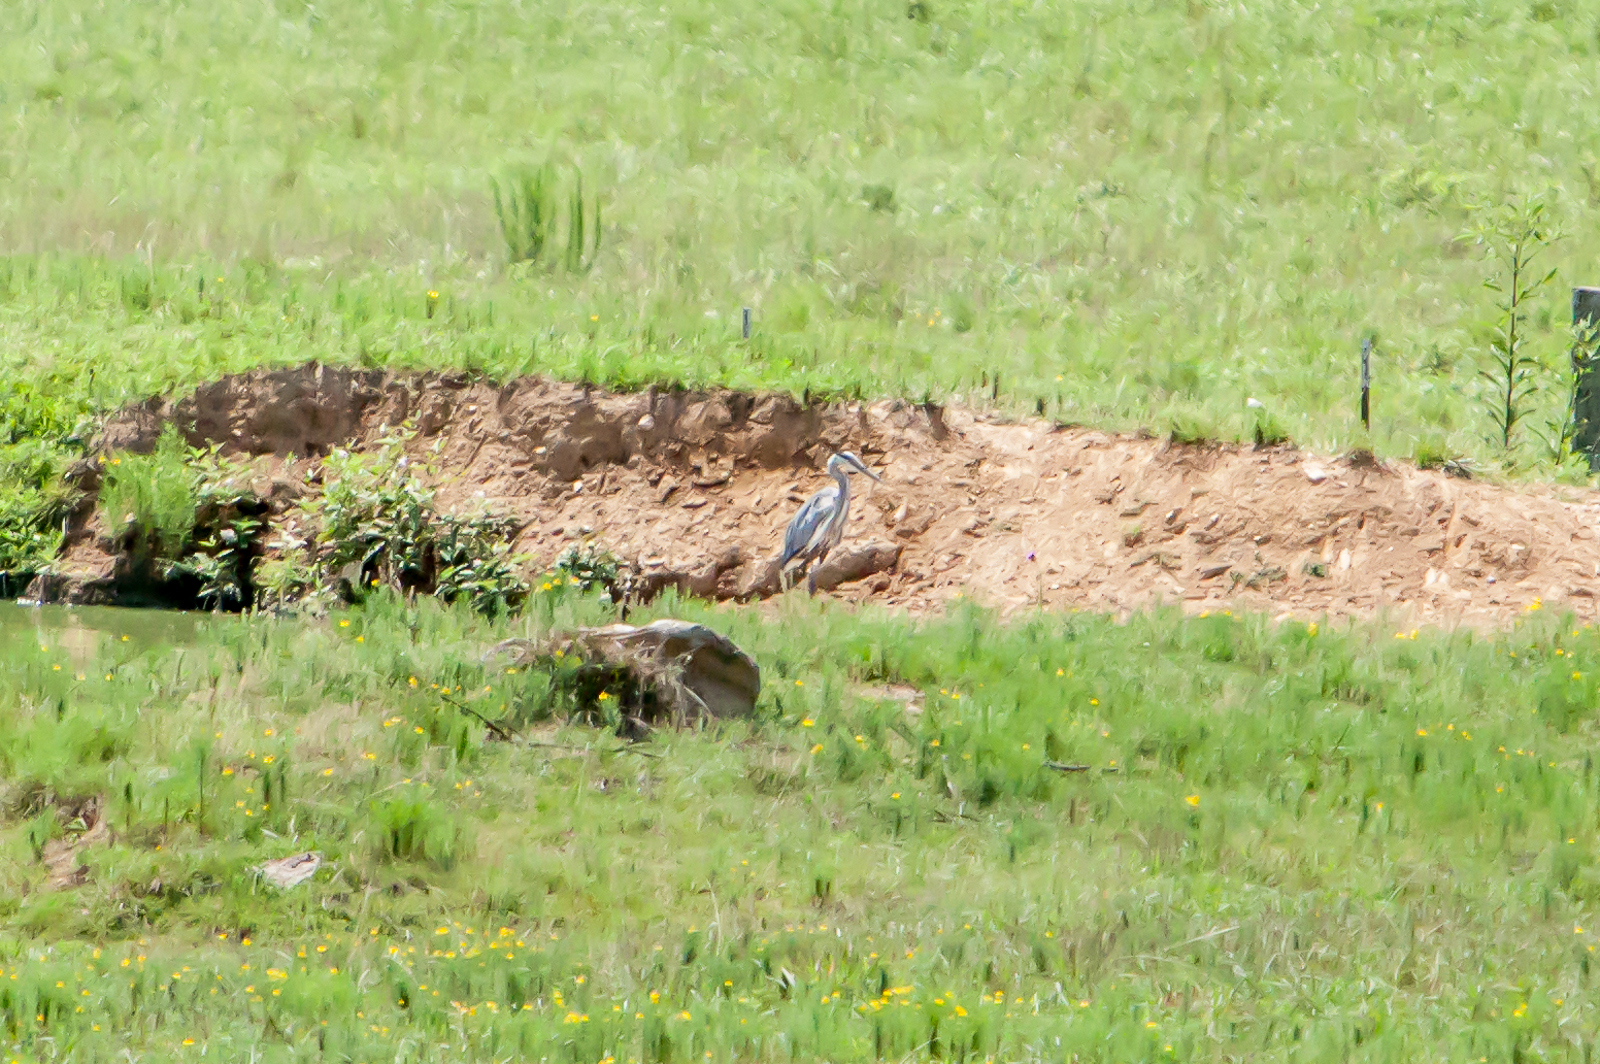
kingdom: Animalia
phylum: Chordata
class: Aves
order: Pelecaniformes
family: Ardeidae
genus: Ardea
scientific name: Ardea herodias
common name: Great blue heron
